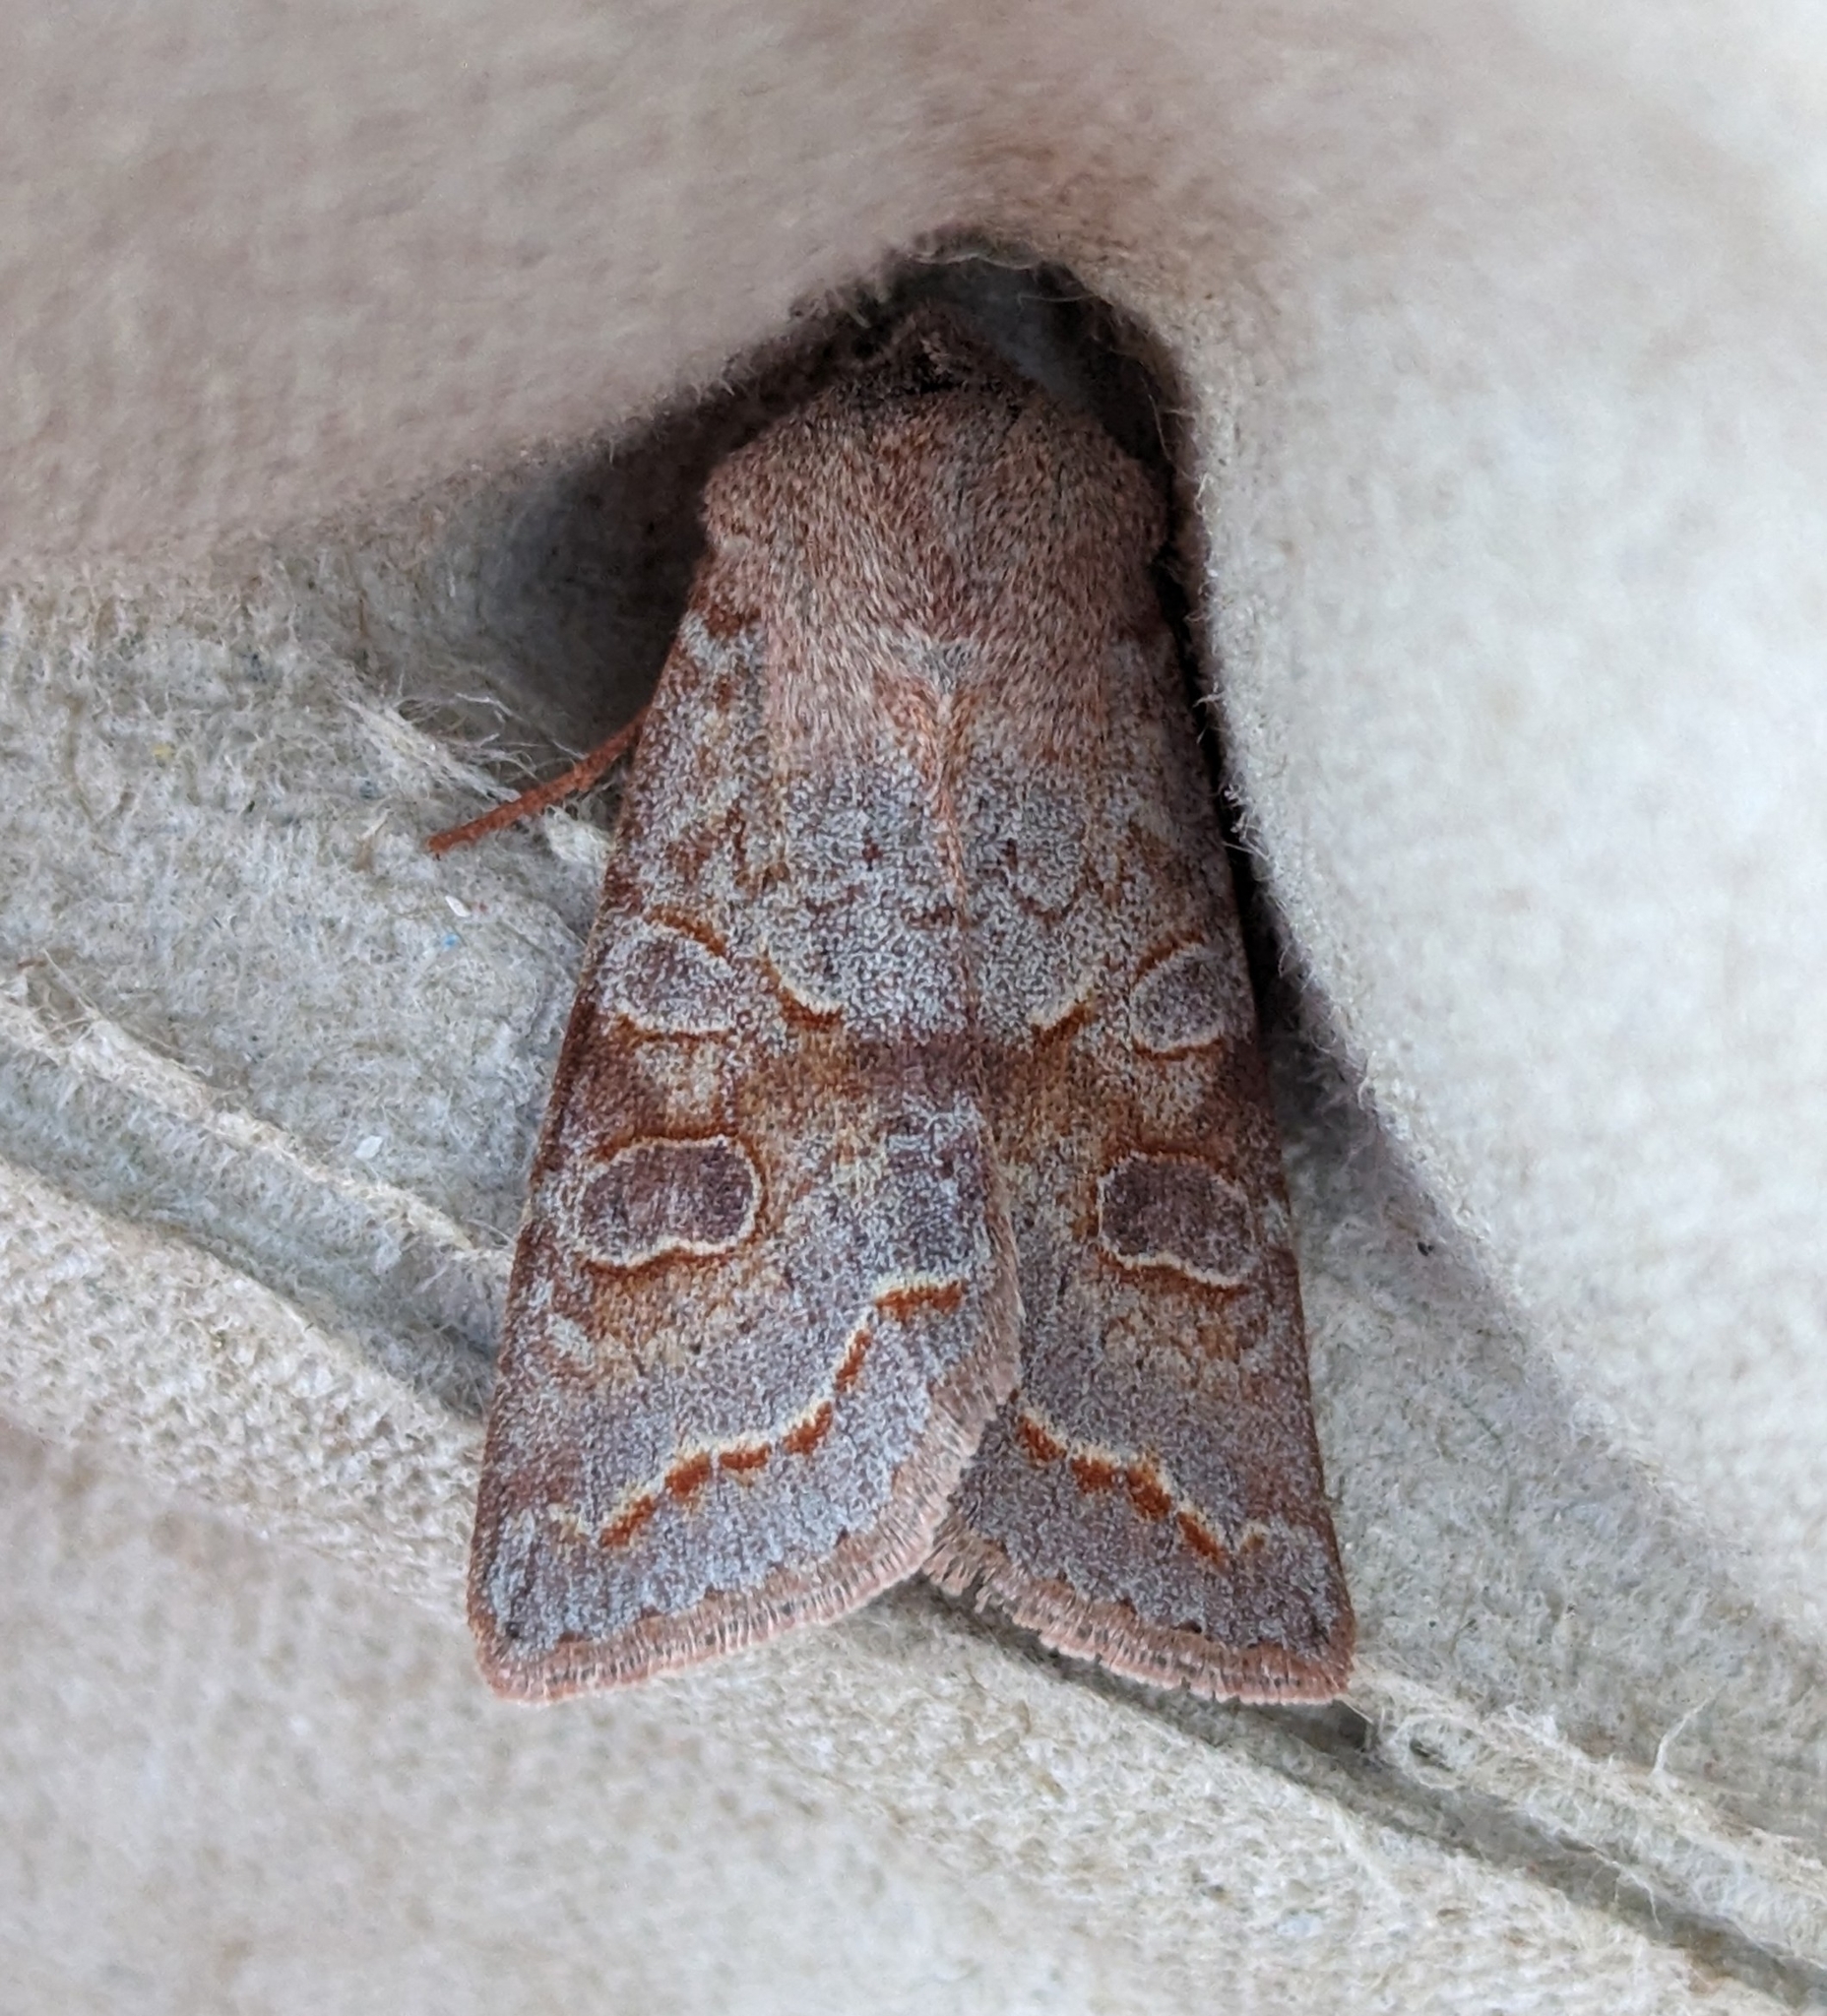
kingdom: Animalia
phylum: Arthropoda
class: Insecta
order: Lepidoptera
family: Noctuidae
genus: Orthosia
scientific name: Orthosia revicta
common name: Rusty whitesided caterpillar
